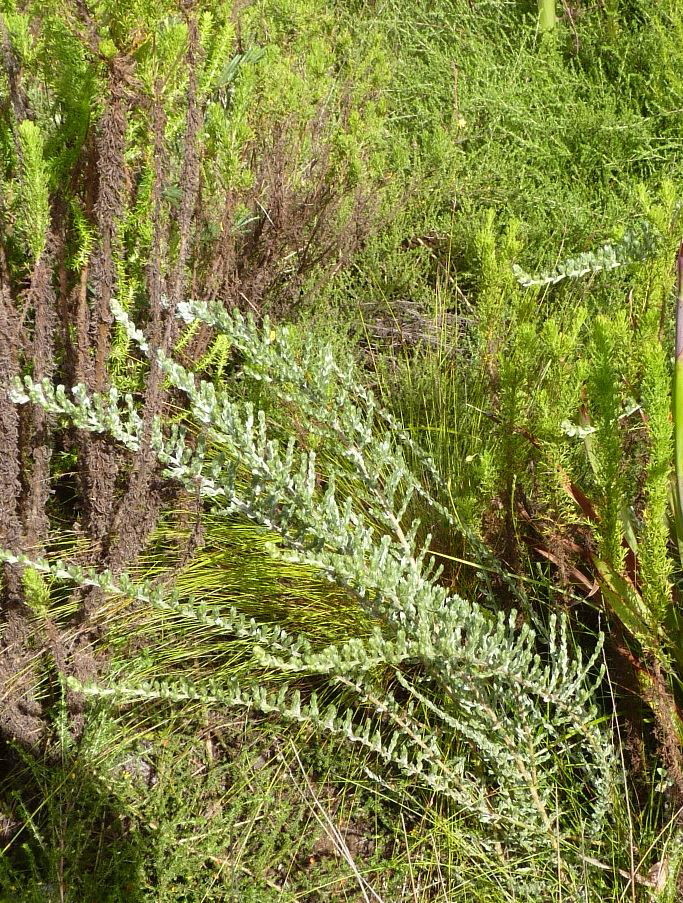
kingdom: Plantae
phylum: Tracheophyta
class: Magnoliopsida
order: Fabales
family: Fabaceae
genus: Amphithalea
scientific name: Amphithalea fourcadei
